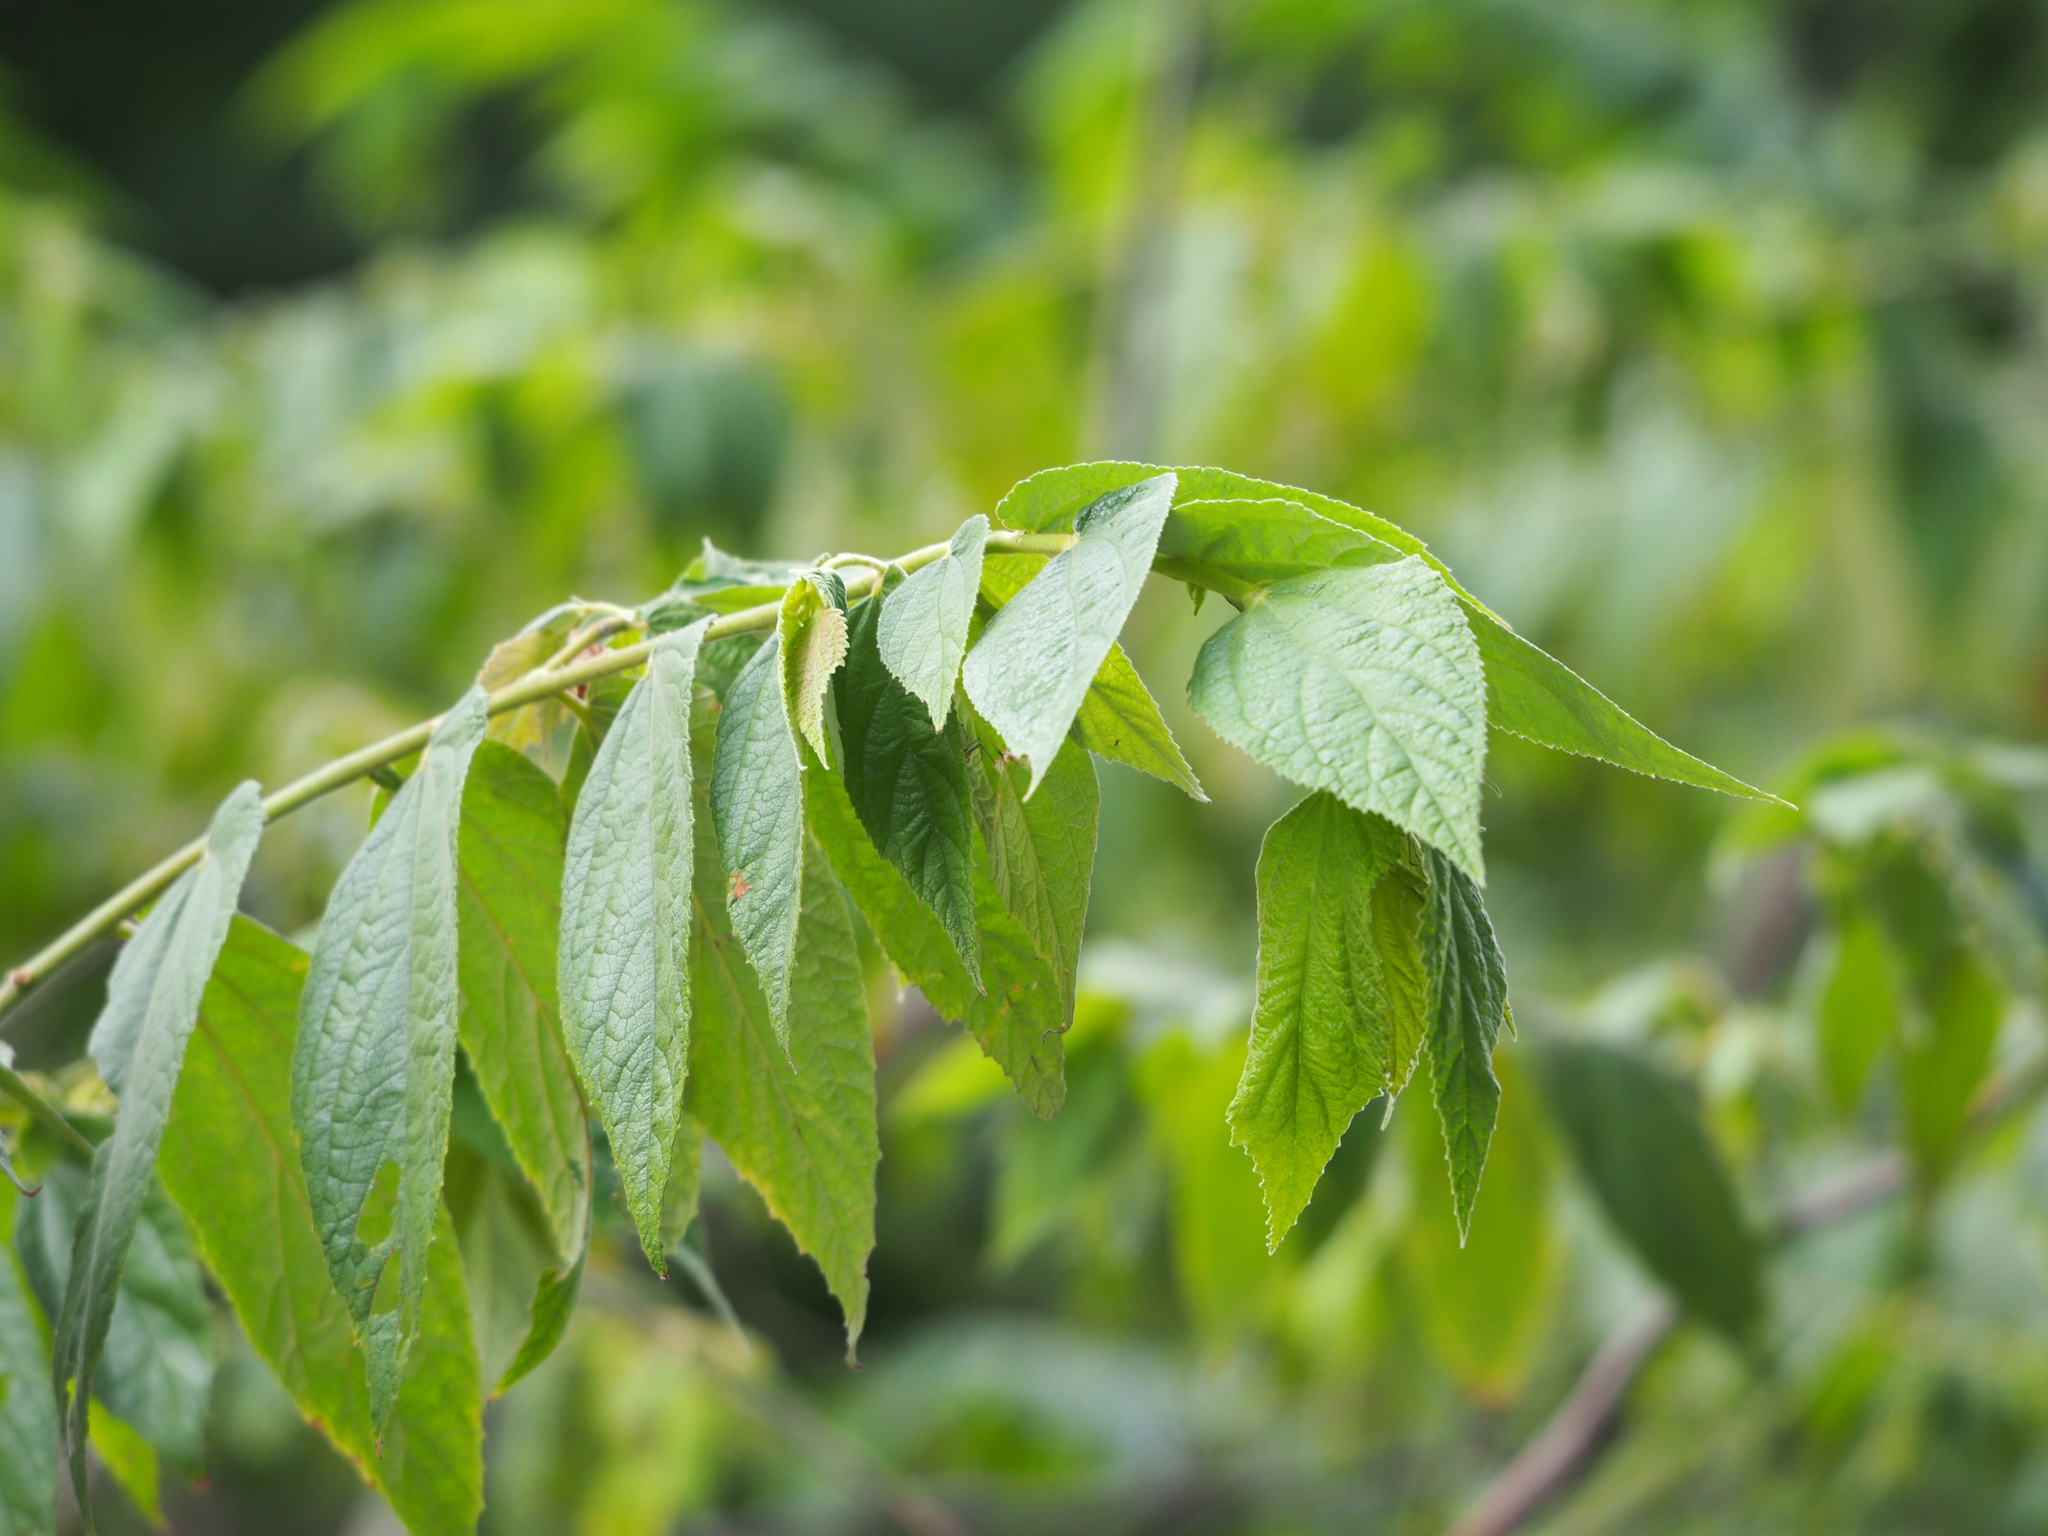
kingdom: Plantae
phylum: Tracheophyta
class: Magnoliopsida
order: Malvales
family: Muntingiaceae
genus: Muntingia
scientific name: Muntingia calabura
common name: Strawberrytree
